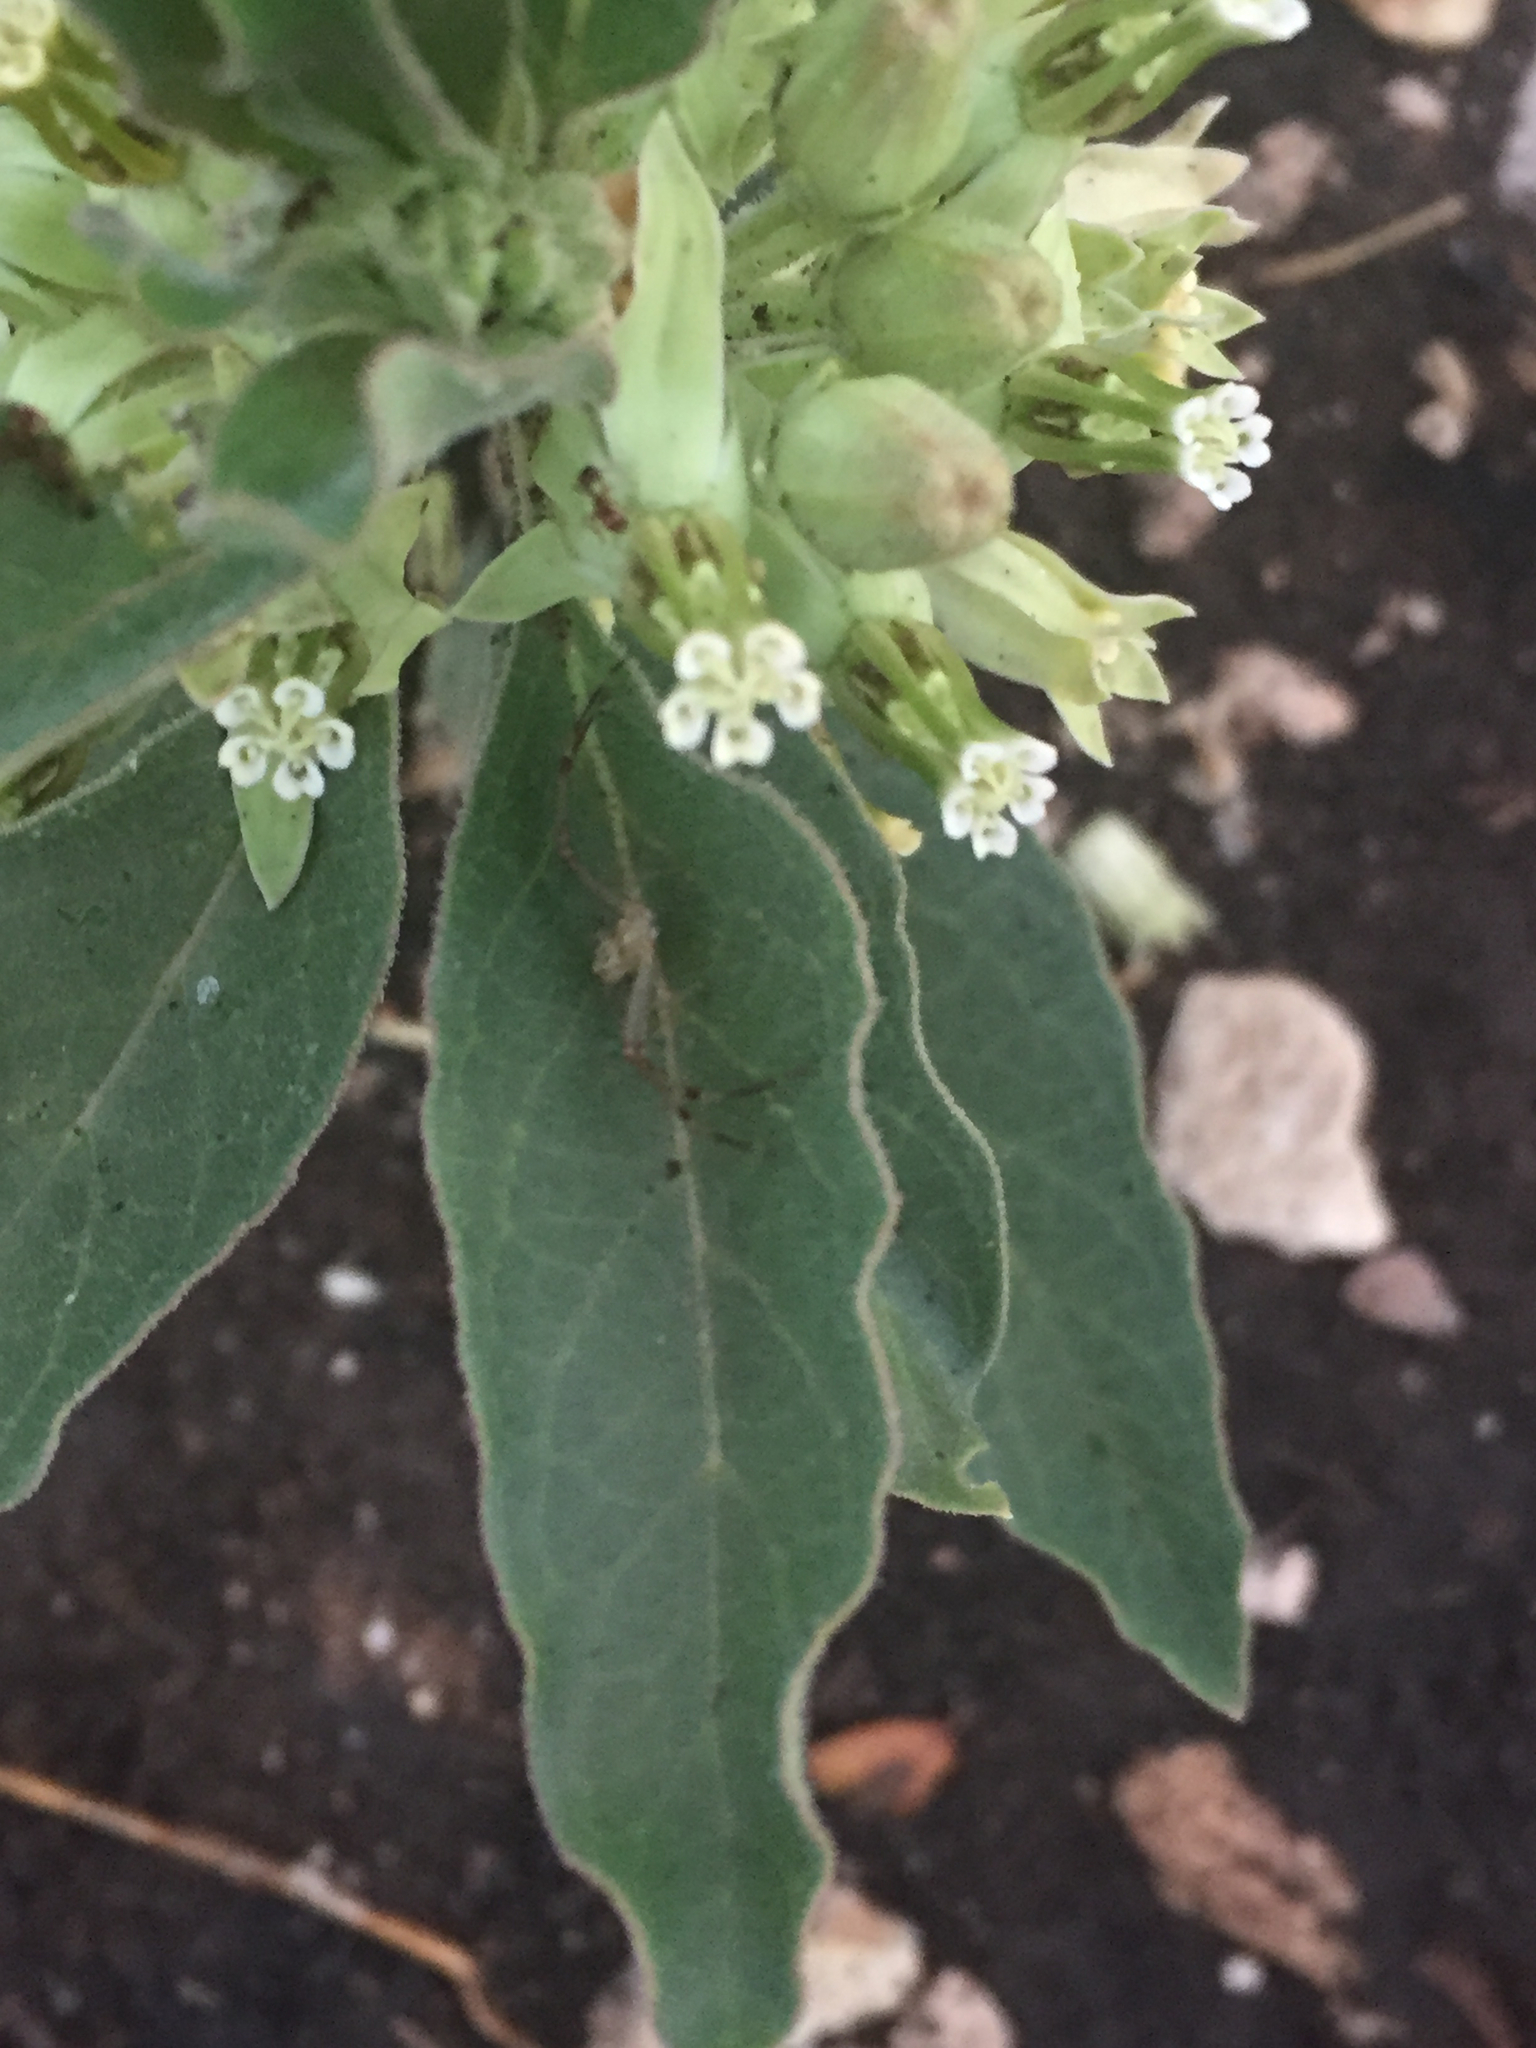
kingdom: Plantae
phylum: Tracheophyta
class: Magnoliopsida
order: Gentianales
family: Apocynaceae
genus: Asclepias
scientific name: Asclepias oenotheroides
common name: Zizotes milkweed
